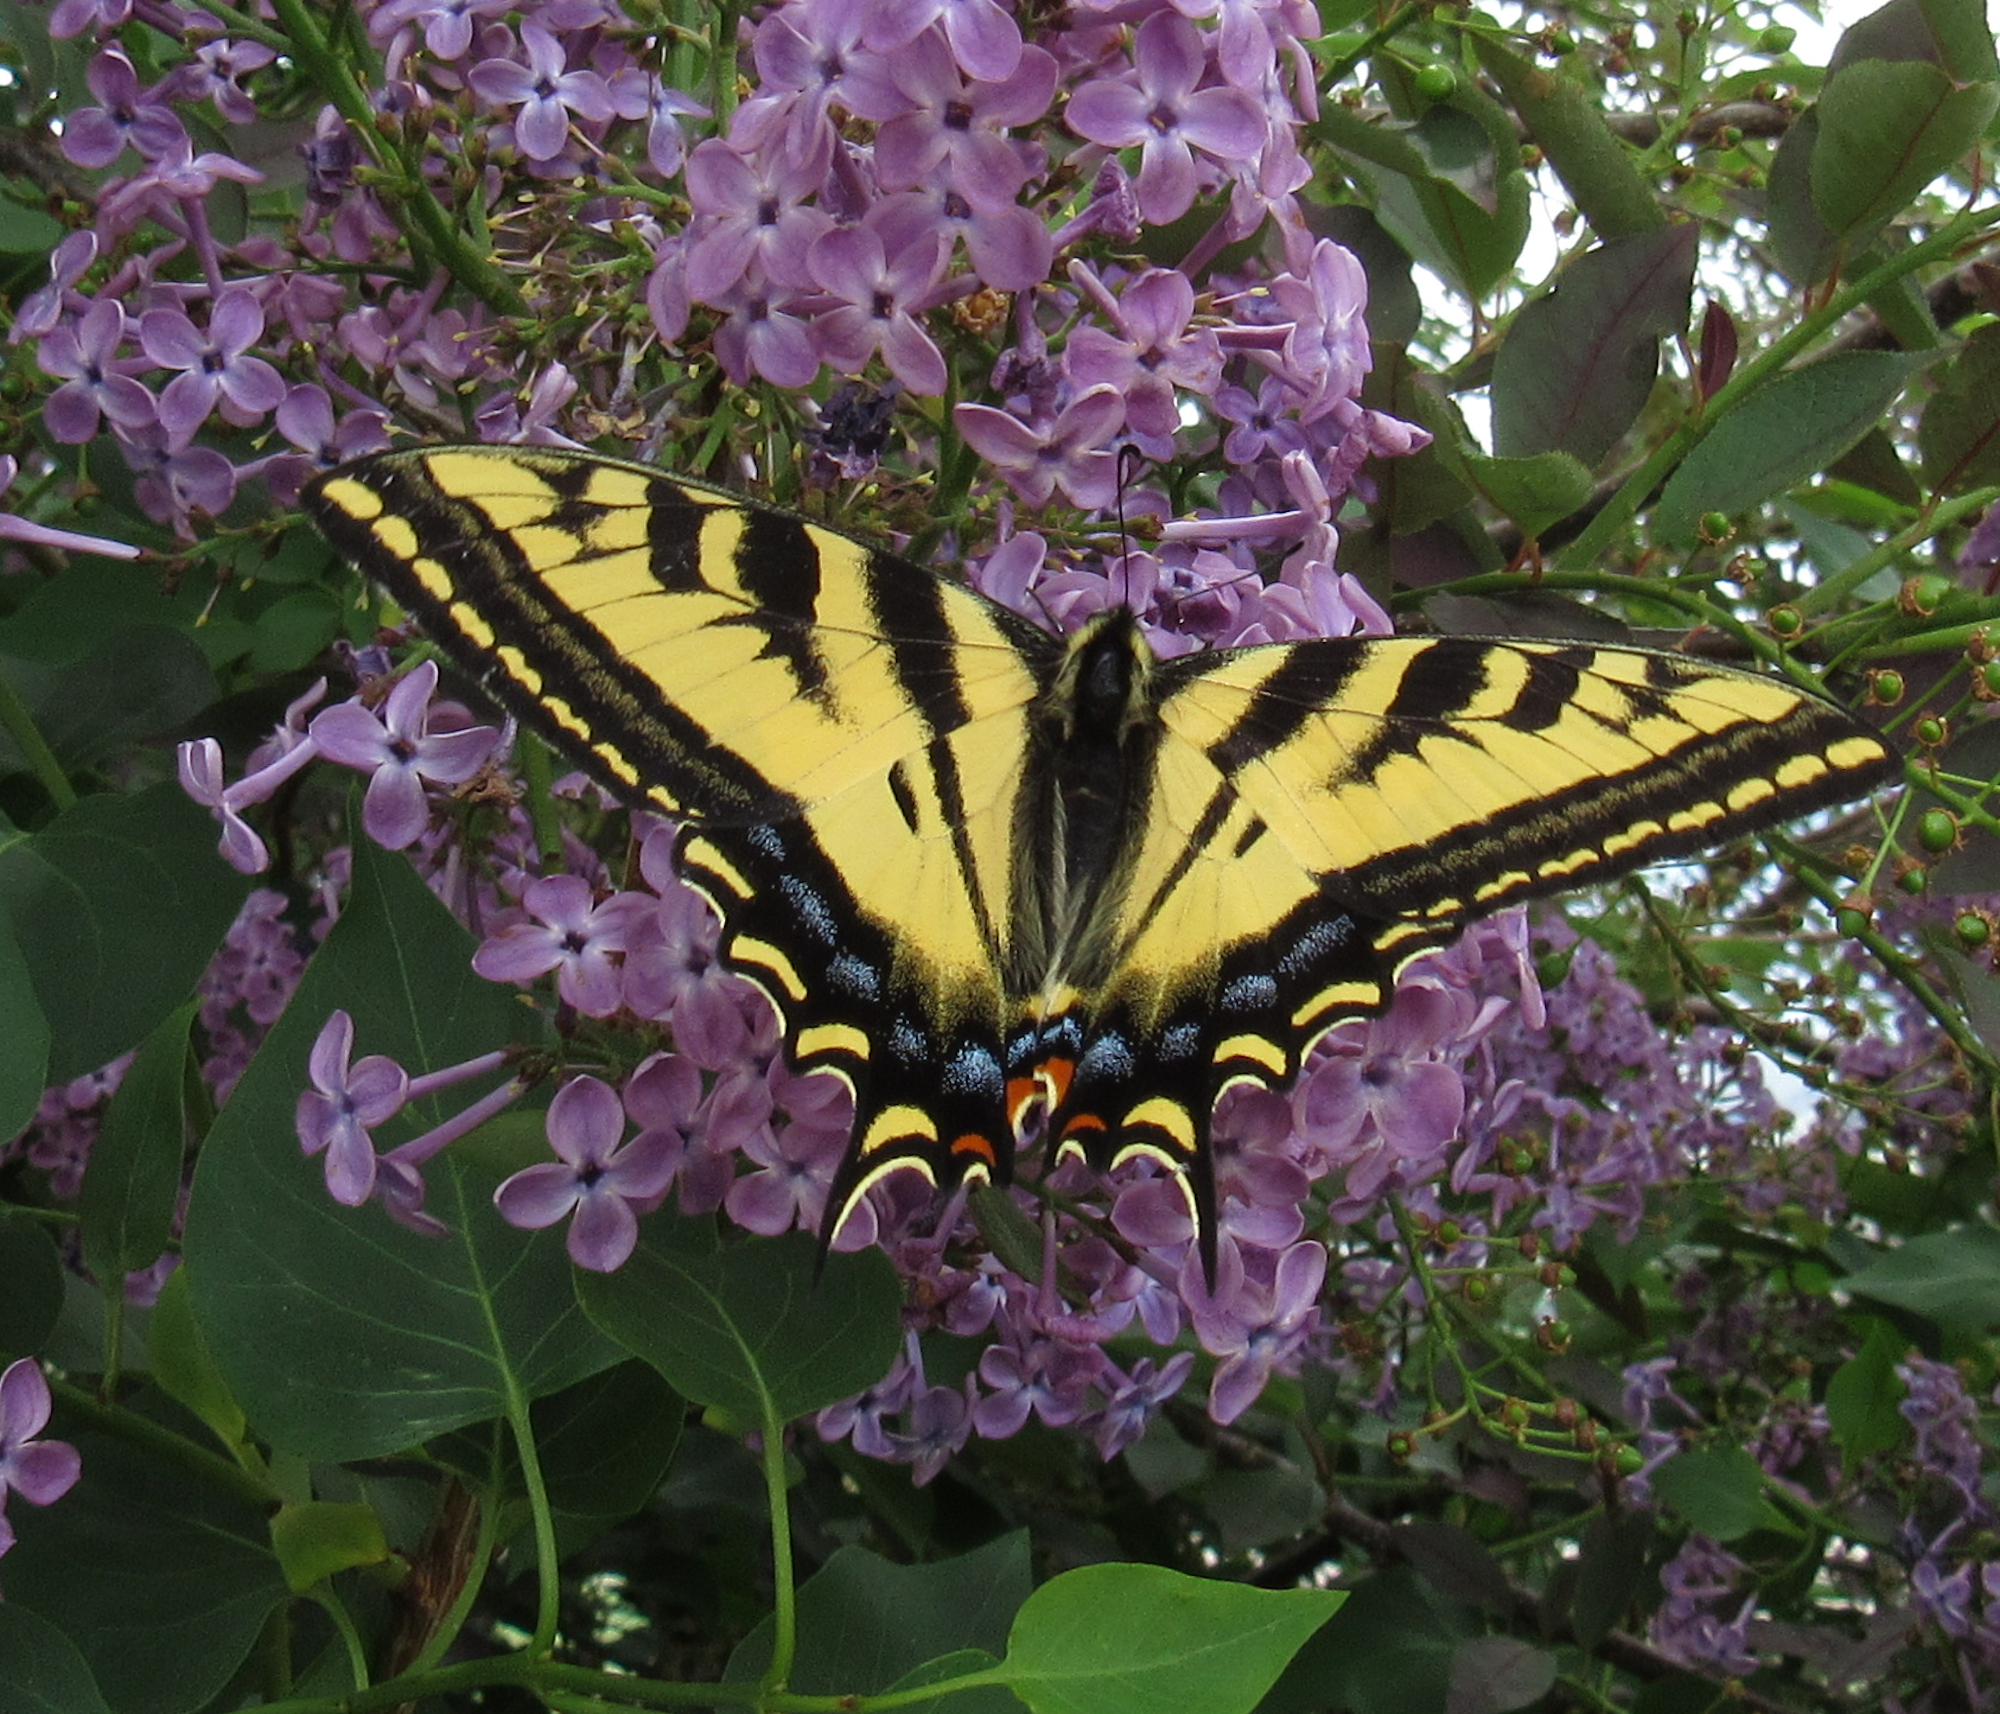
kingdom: Animalia
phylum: Arthropoda
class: Insecta
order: Lepidoptera
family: Papilionidae
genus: Papilio
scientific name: Papilio rutulus
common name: Western tiger swallowtail
